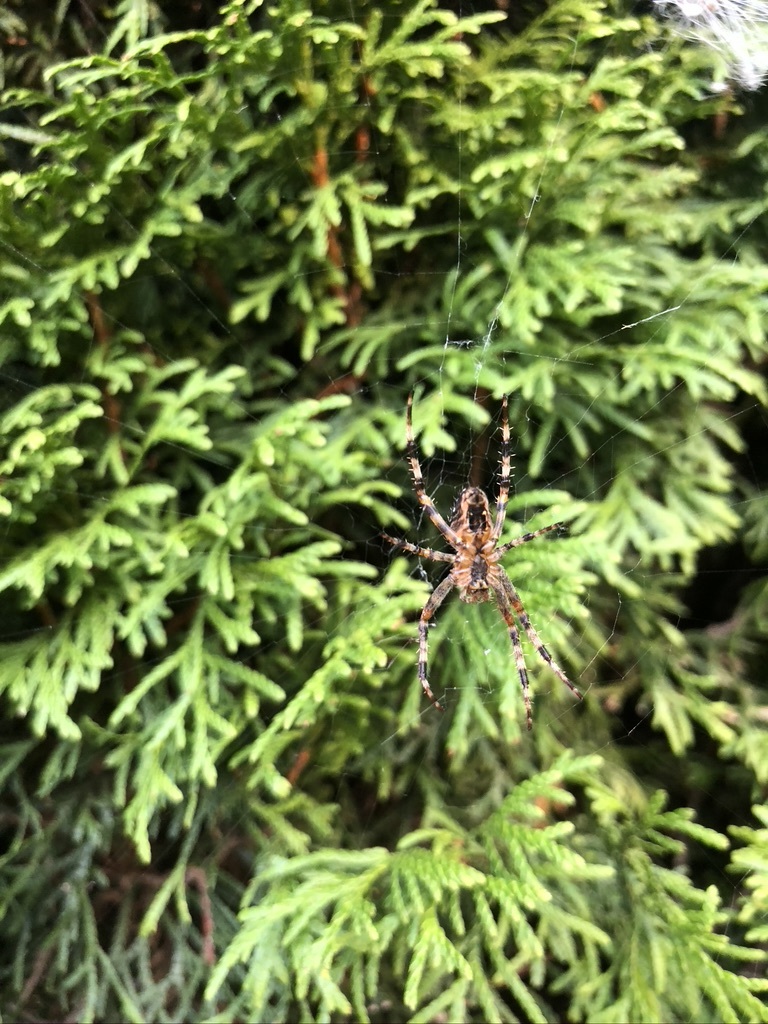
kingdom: Animalia
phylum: Arthropoda
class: Arachnida
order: Araneae
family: Araneidae
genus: Araneus
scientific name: Araneus diadematus
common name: Cross orbweaver
